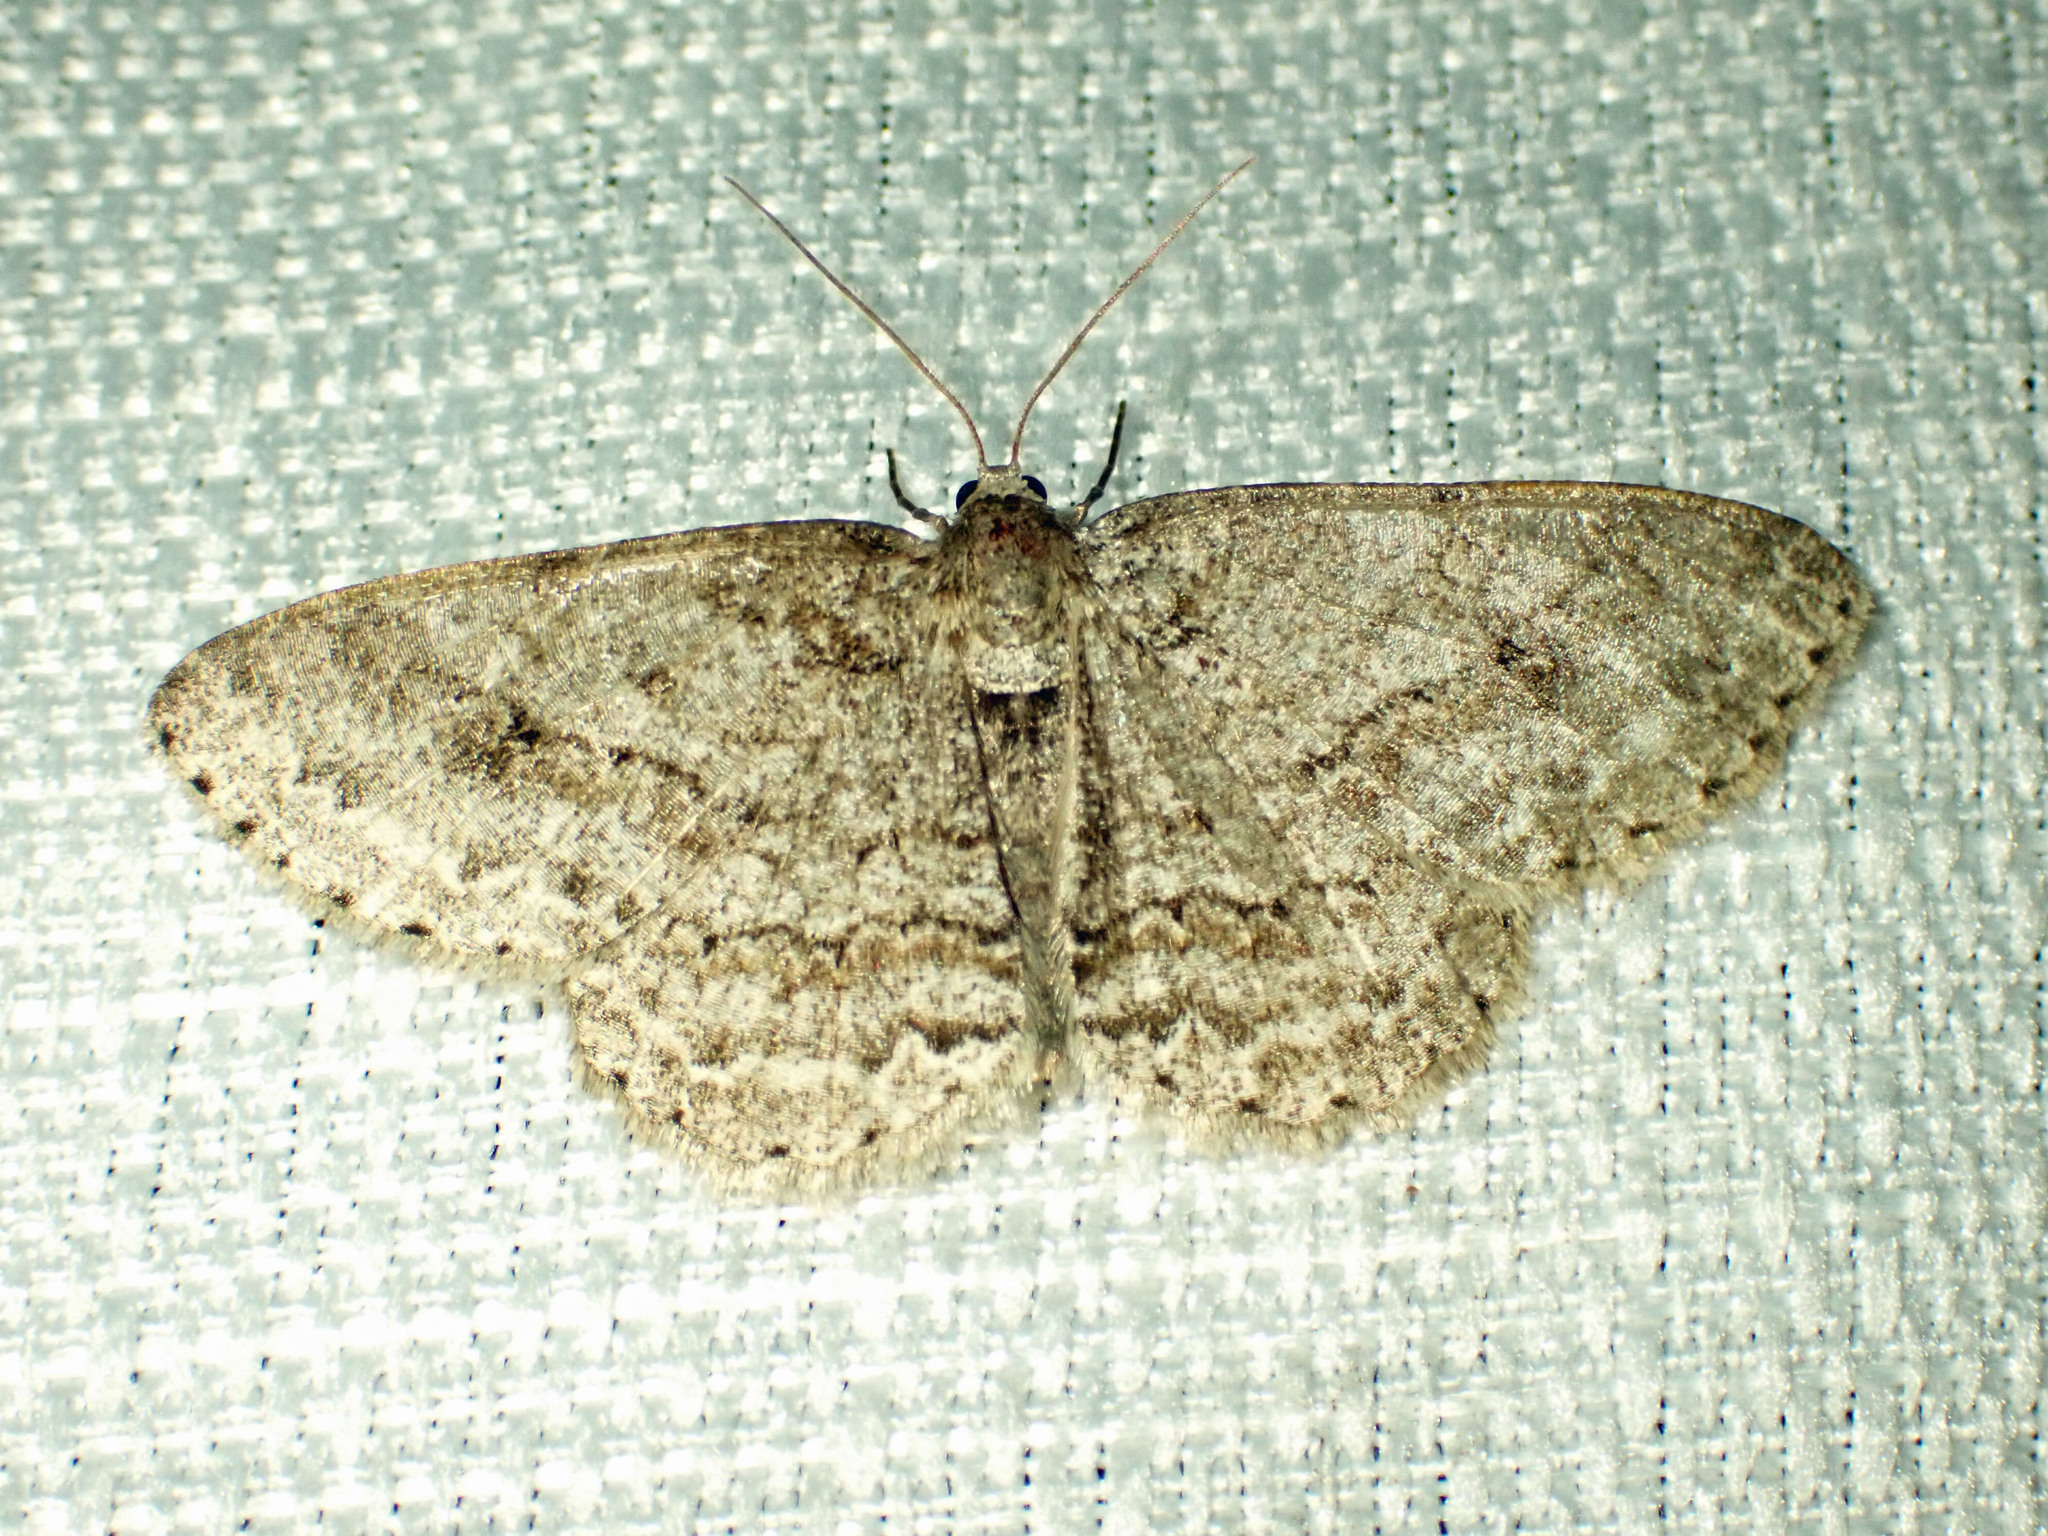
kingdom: Animalia
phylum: Arthropoda
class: Insecta
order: Lepidoptera
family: Geometridae
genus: Ectropis
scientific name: Ectropis crepuscularia
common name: Engrailed
